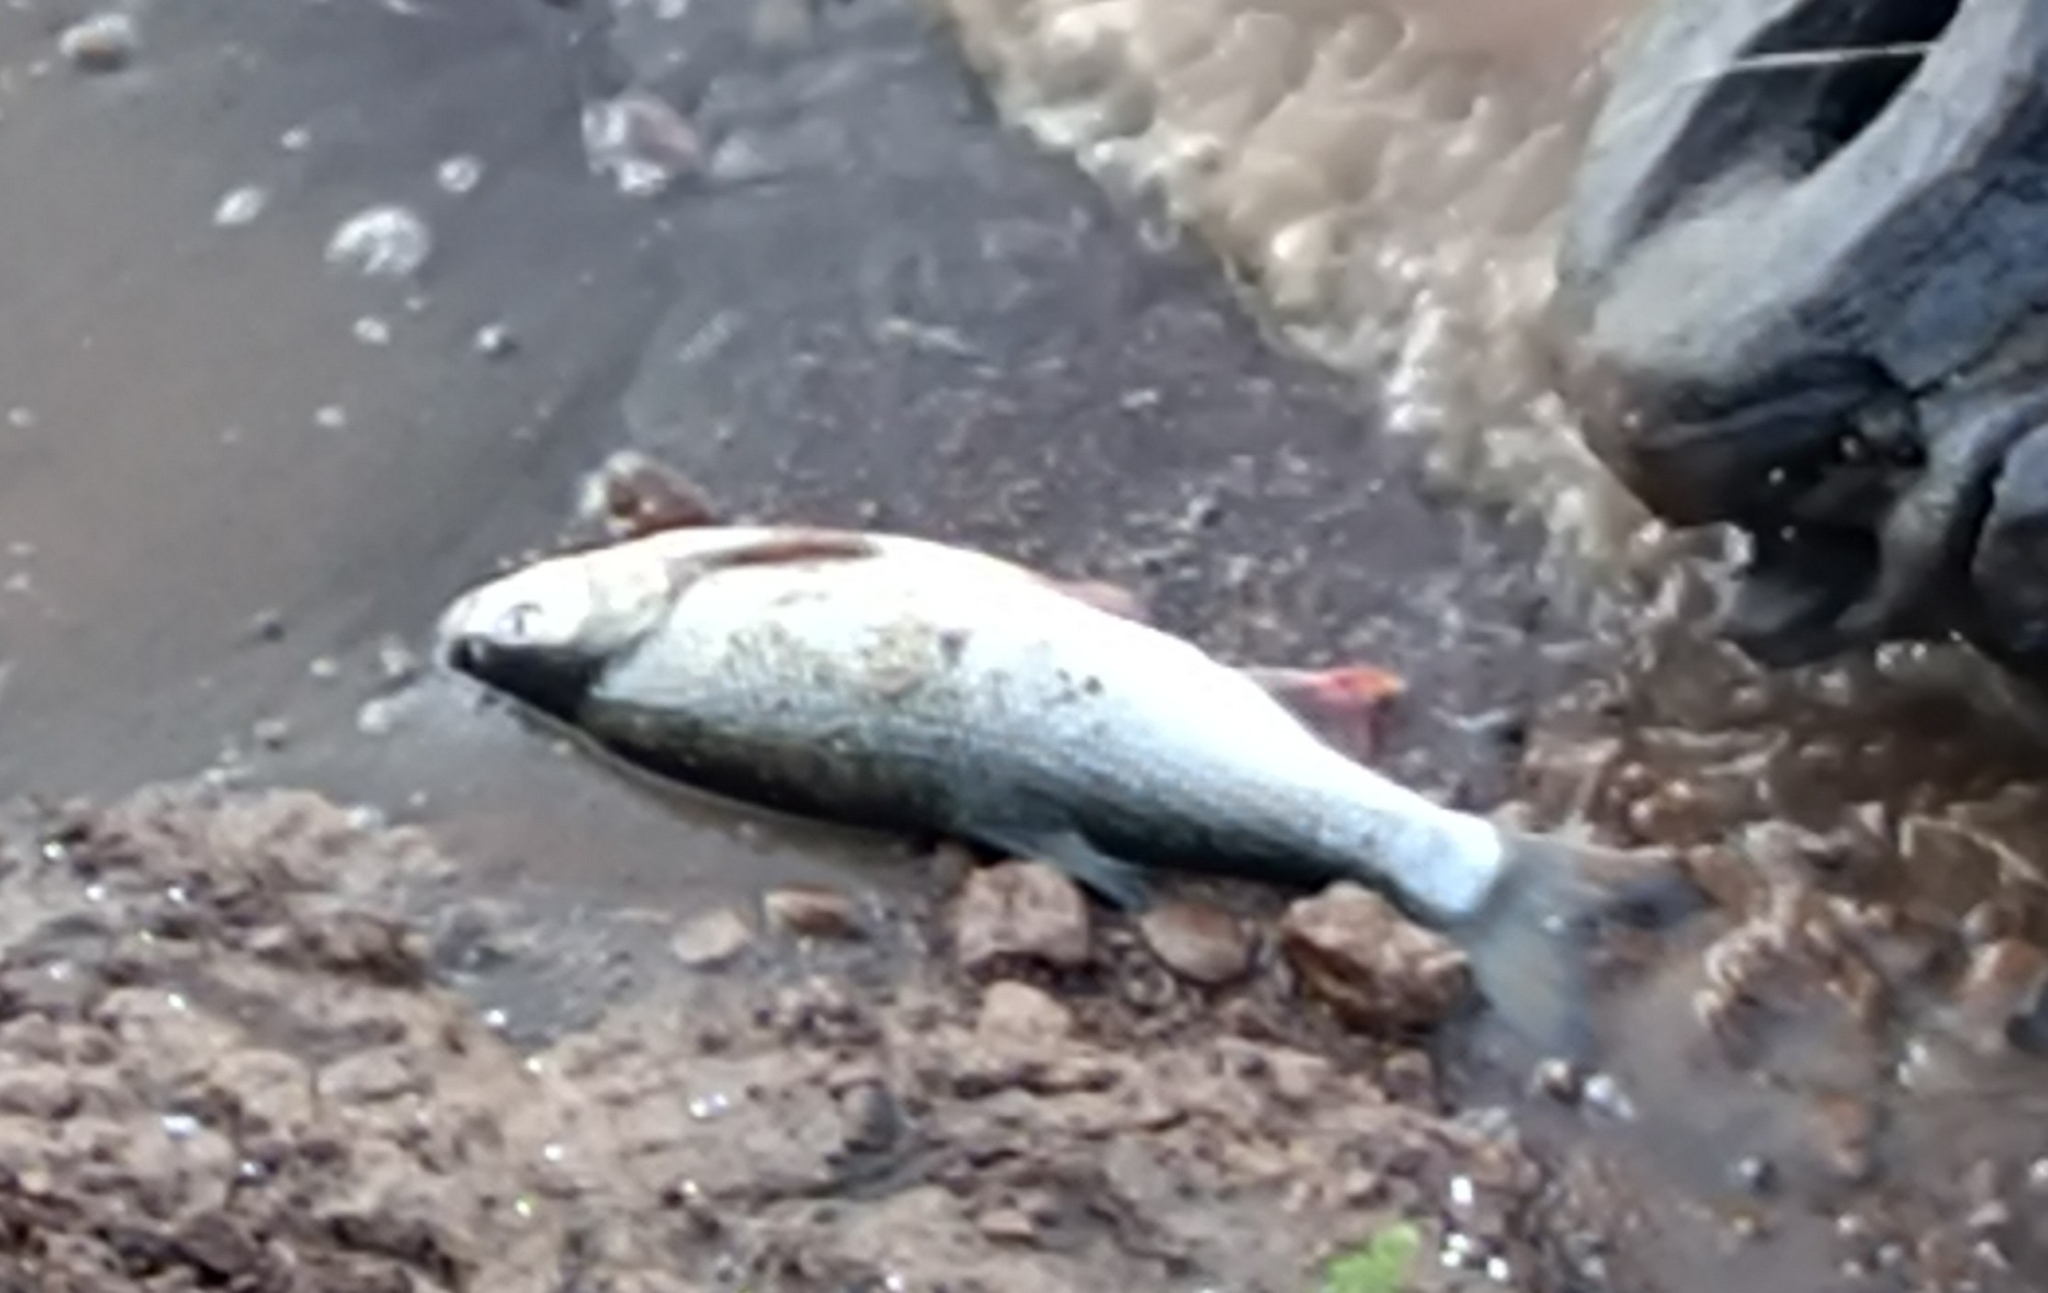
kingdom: Animalia
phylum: Chordata
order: Cypriniformes
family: Cyprinidae
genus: Leuciscus
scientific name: Leuciscus idus
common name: Ide
